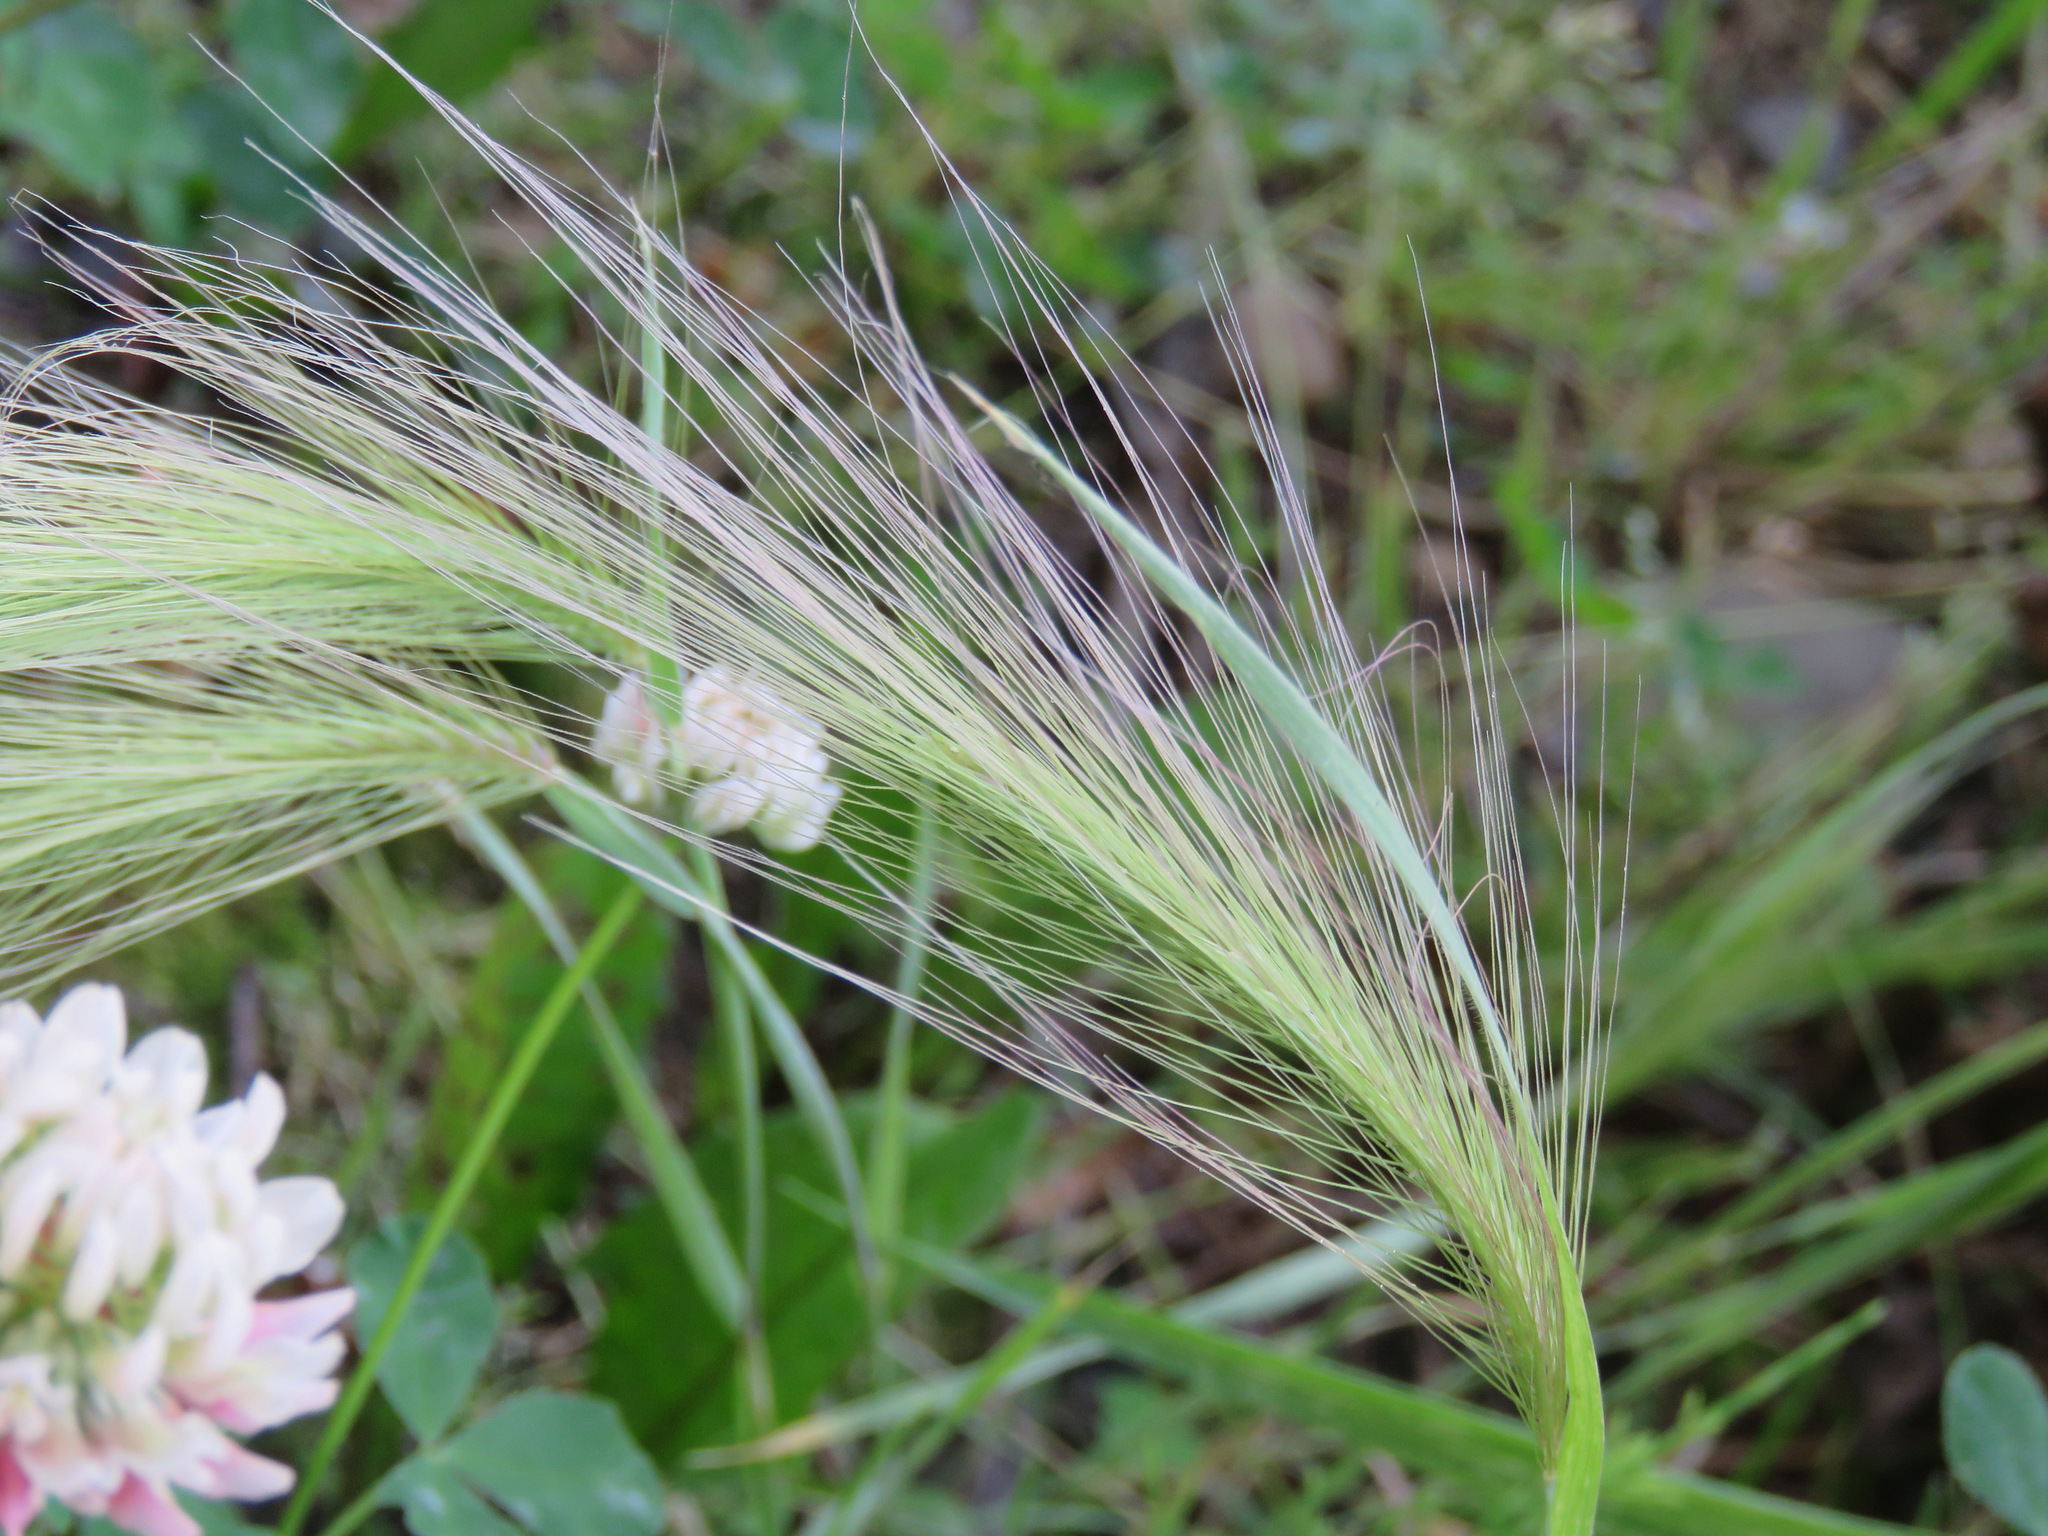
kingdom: Plantae
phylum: Tracheophyta
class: Liliopsida
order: Poales
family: Poaceae
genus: Hordeum
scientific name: Hordeum jubatum
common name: Foxtail barley
